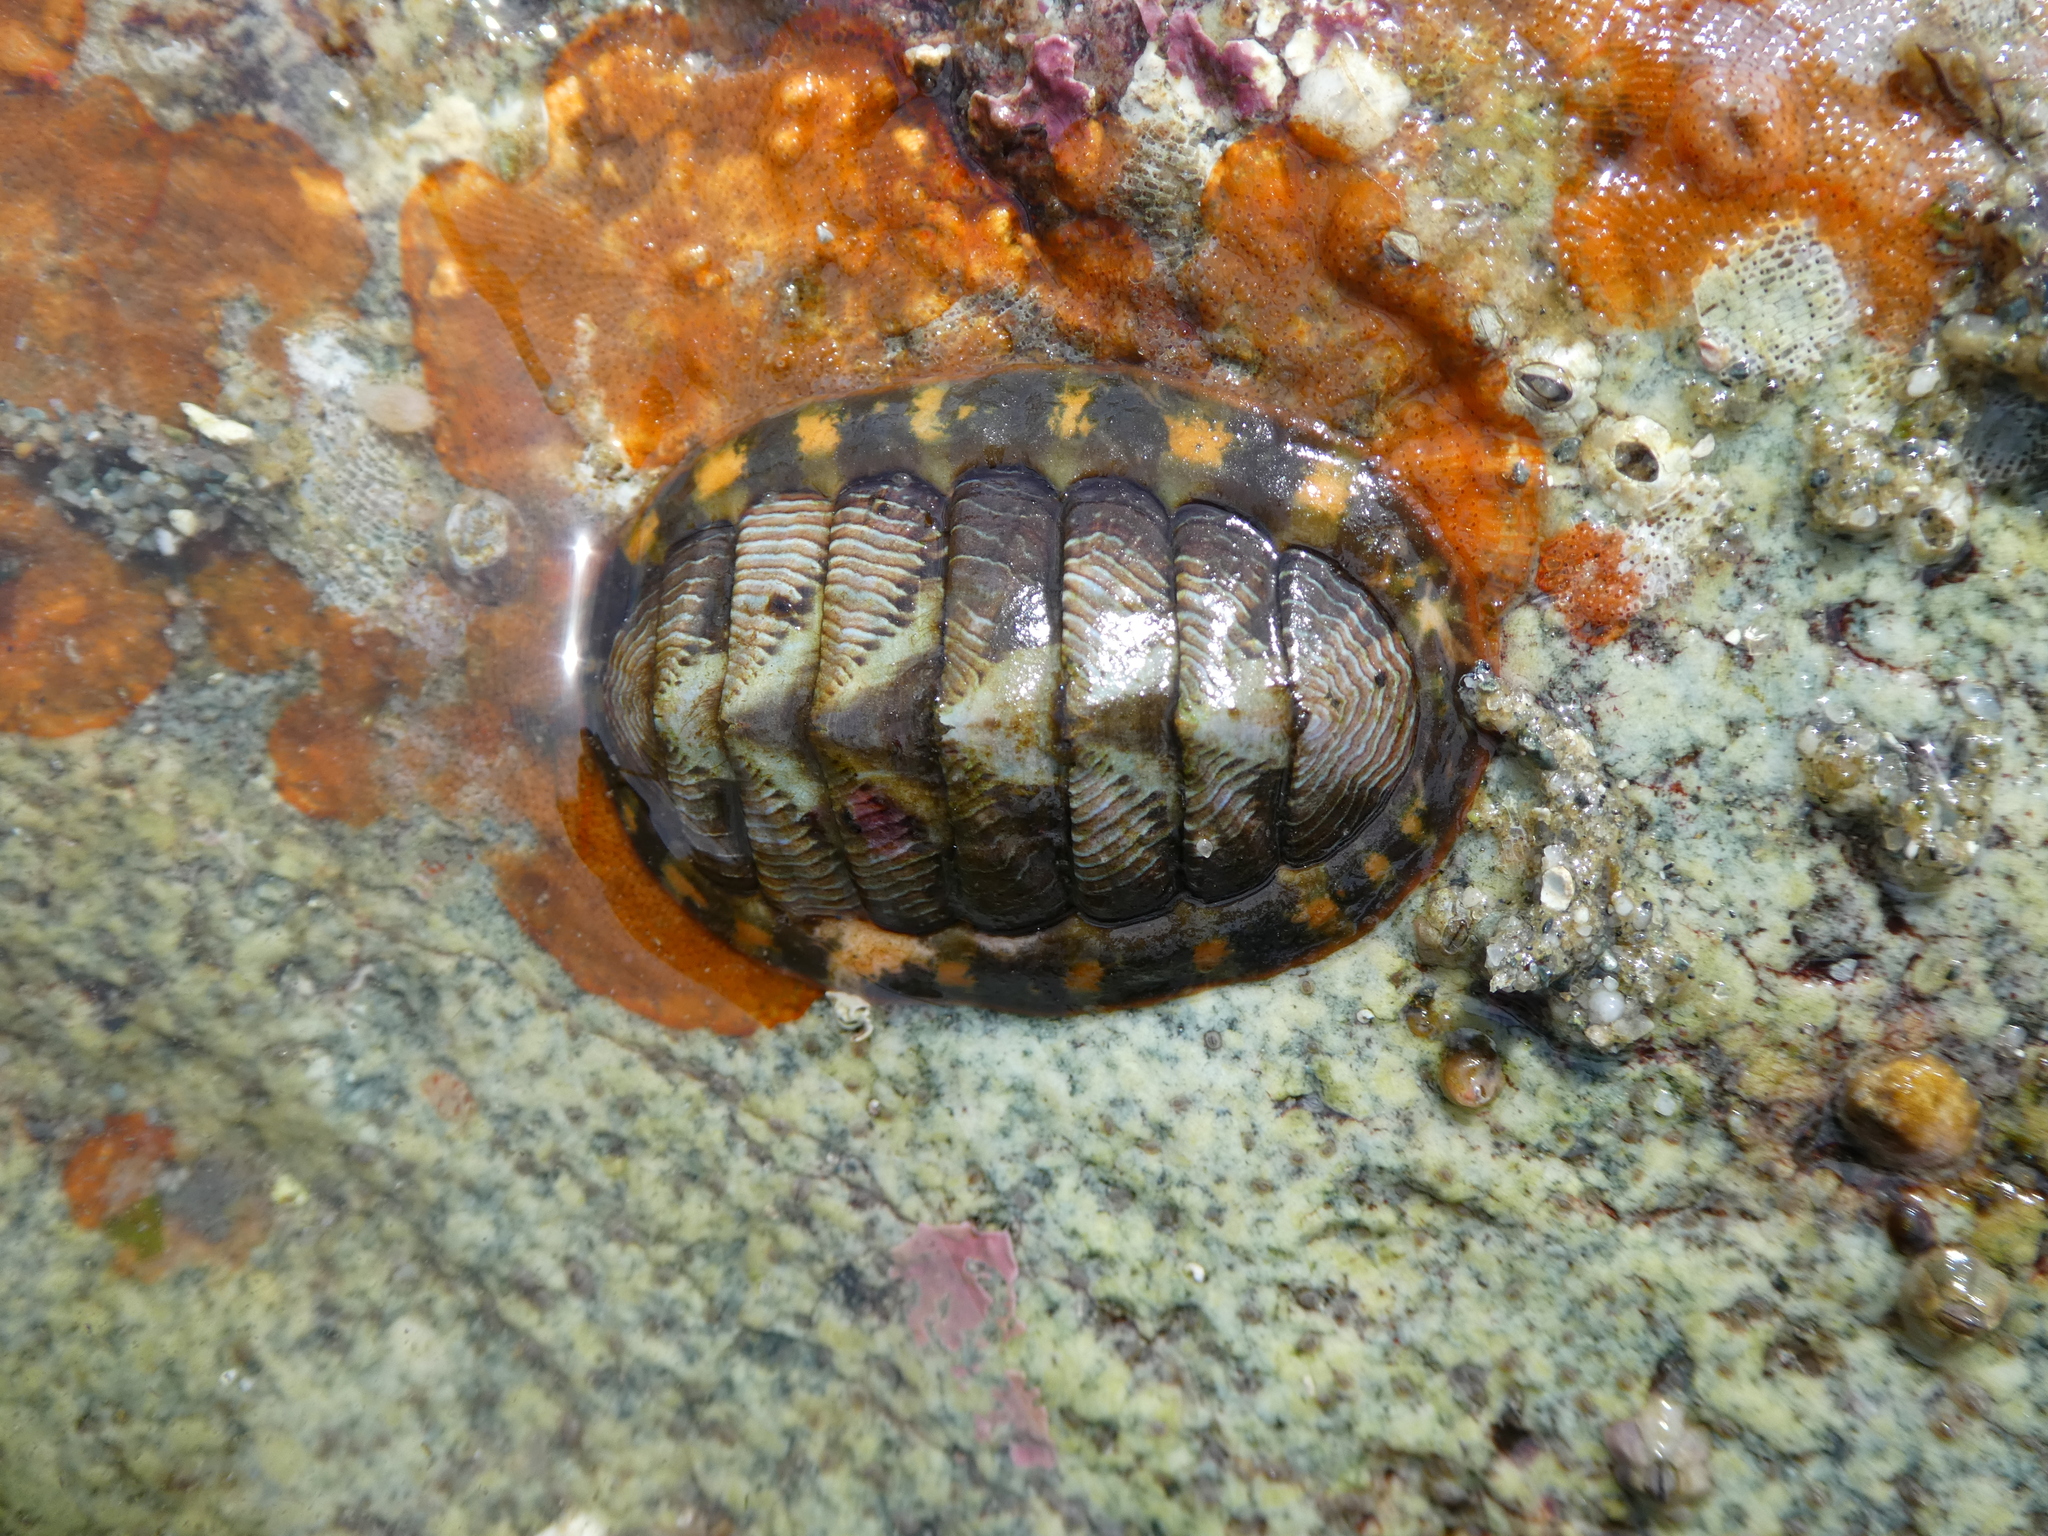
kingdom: Animalia
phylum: Mollusca
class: Polyplacophora
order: Chitonida
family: Tonicellidae
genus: Tonicella
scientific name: Tonicella lineata
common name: Lined chiton
